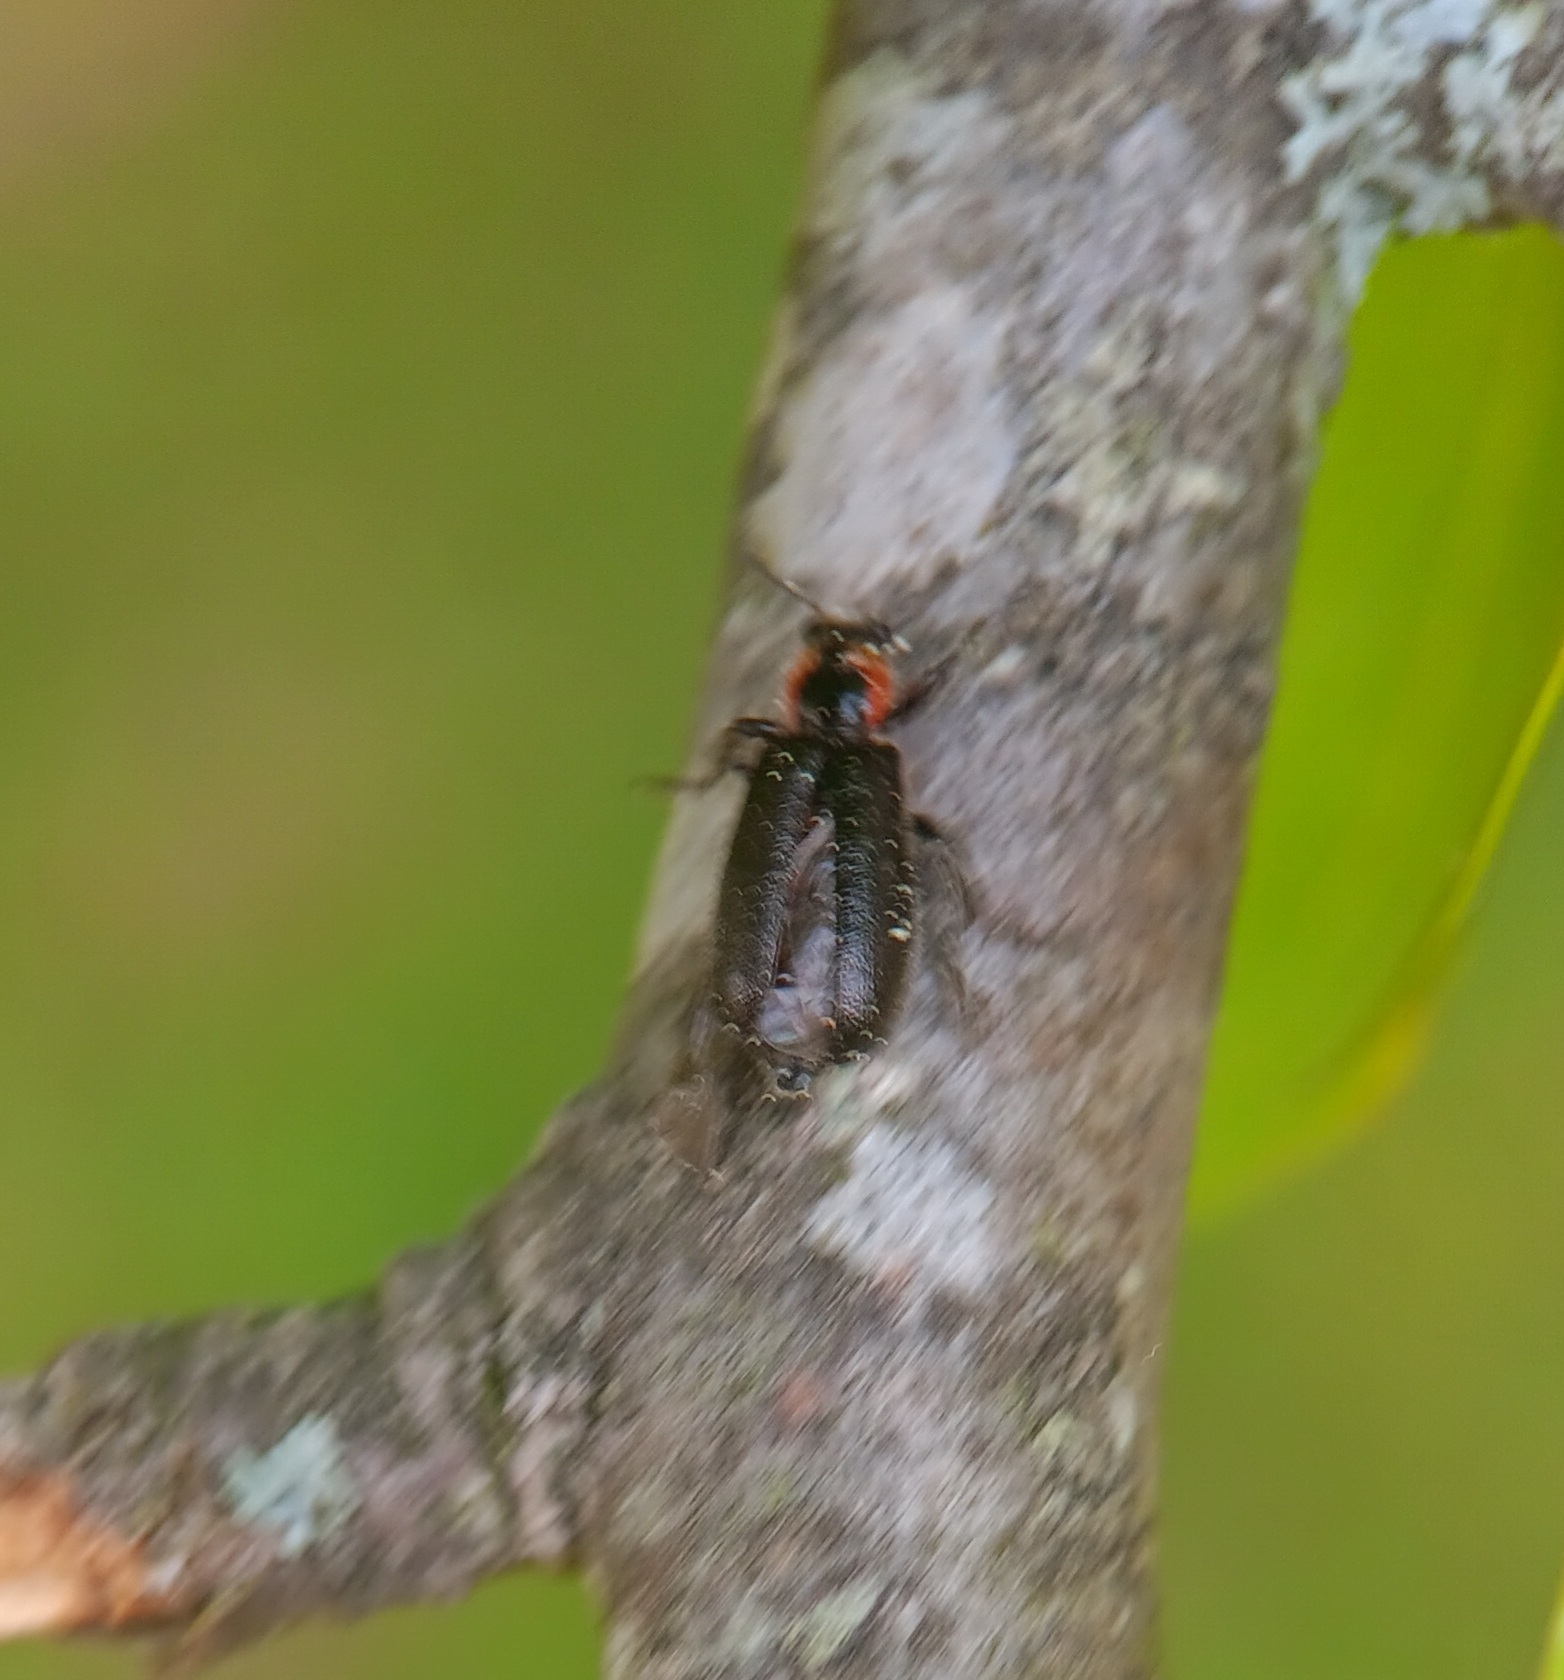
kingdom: Animalia
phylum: Arthropoda
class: Insecta
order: Coleoptera
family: Cleridae
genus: Placopterus
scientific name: Placopterus thoracicus
